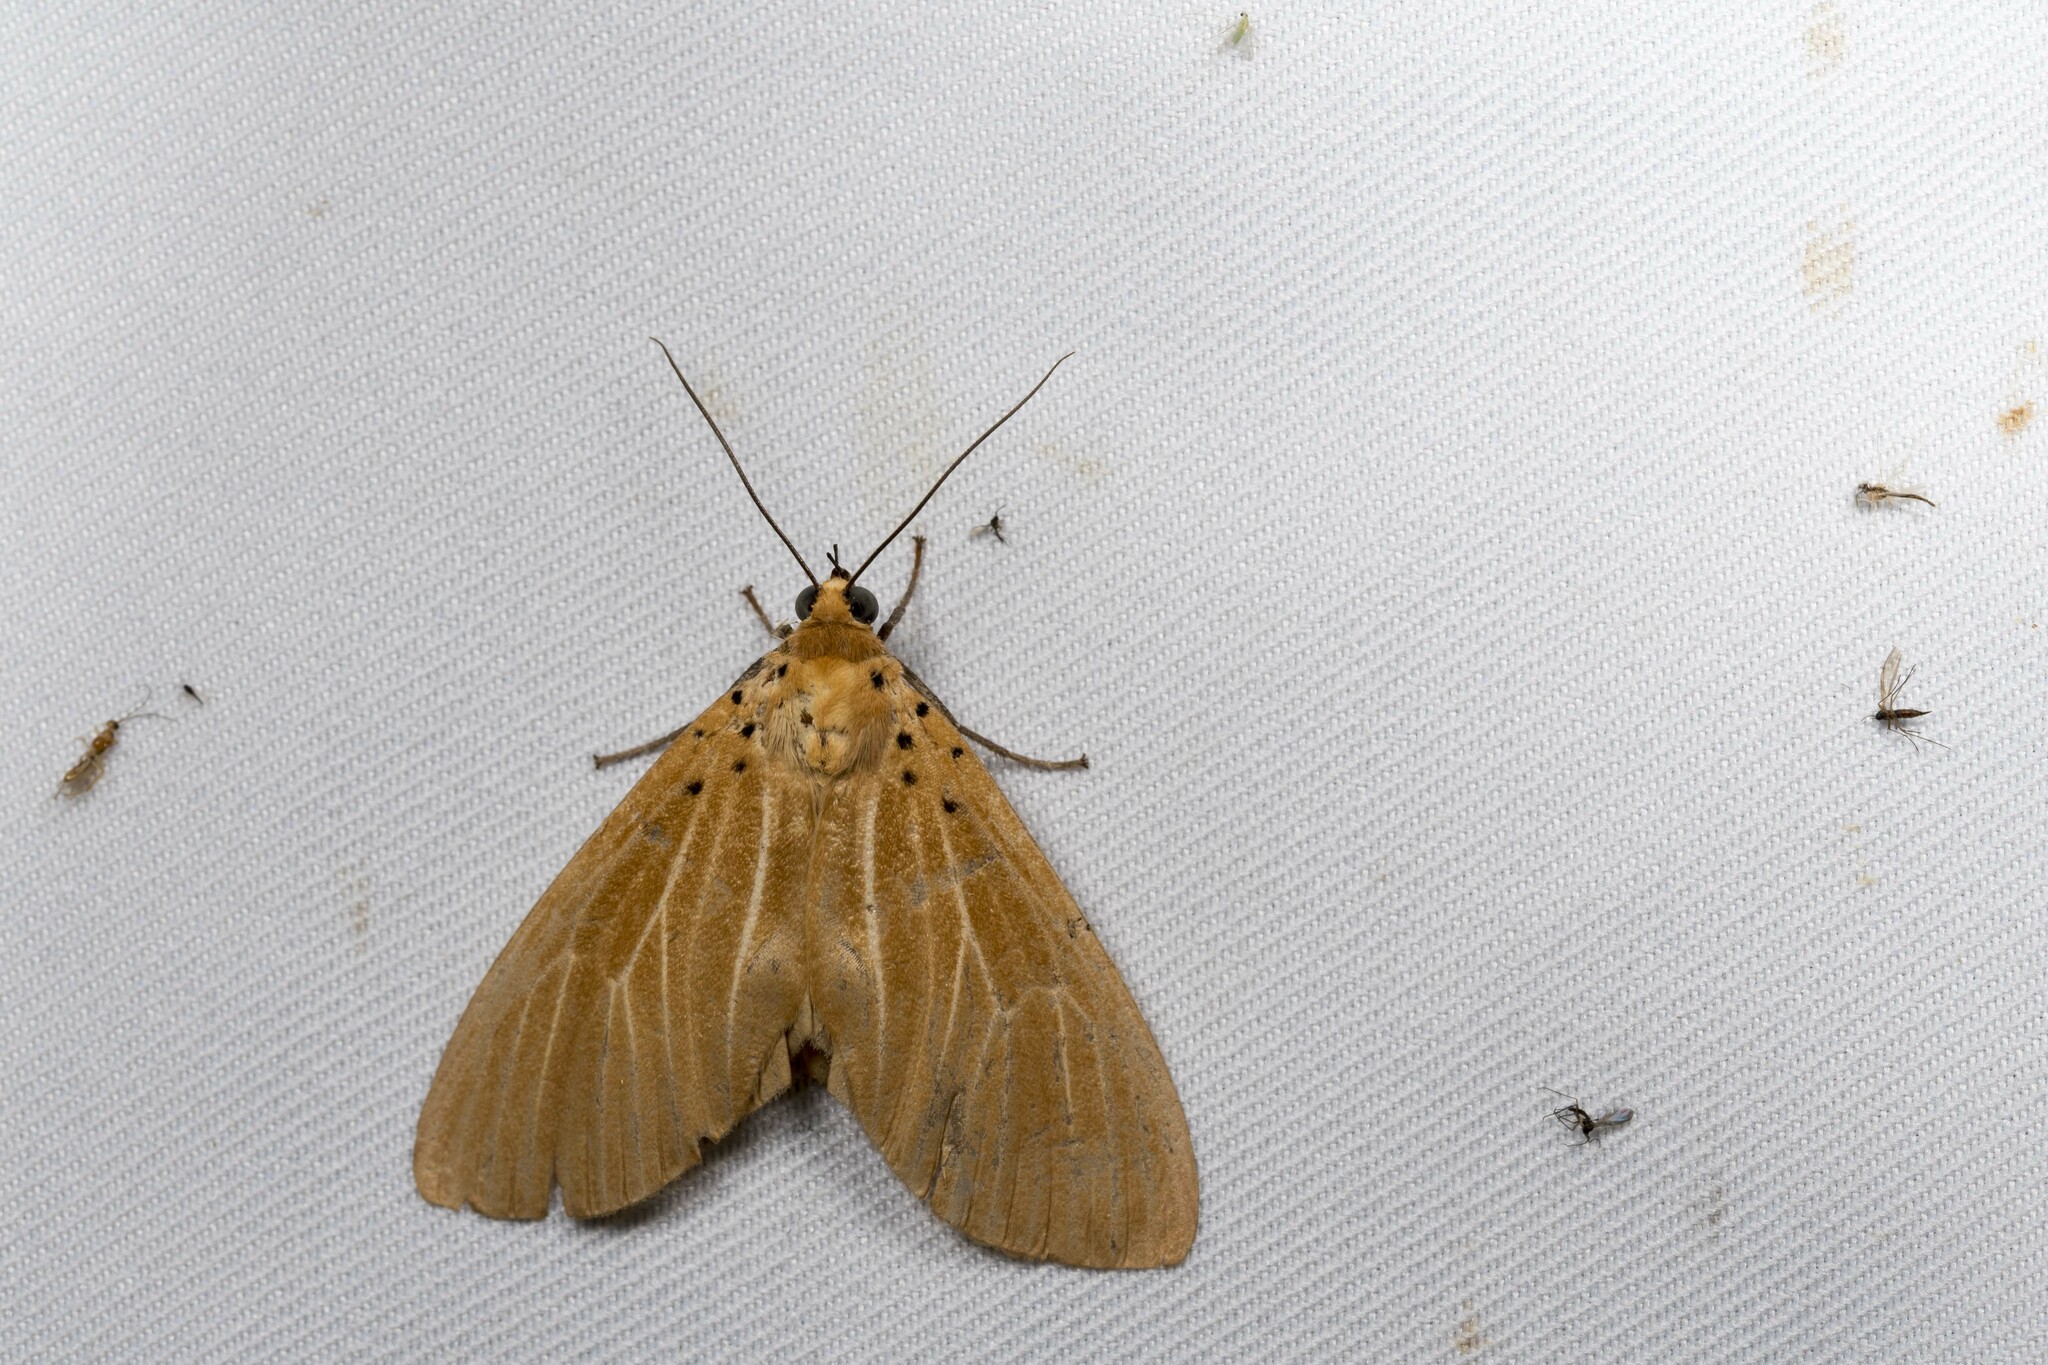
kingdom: Animalia
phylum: Arthropoda
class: Insecta
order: Lepidoptera
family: Erebidae
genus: Asota
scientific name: Asota egens
